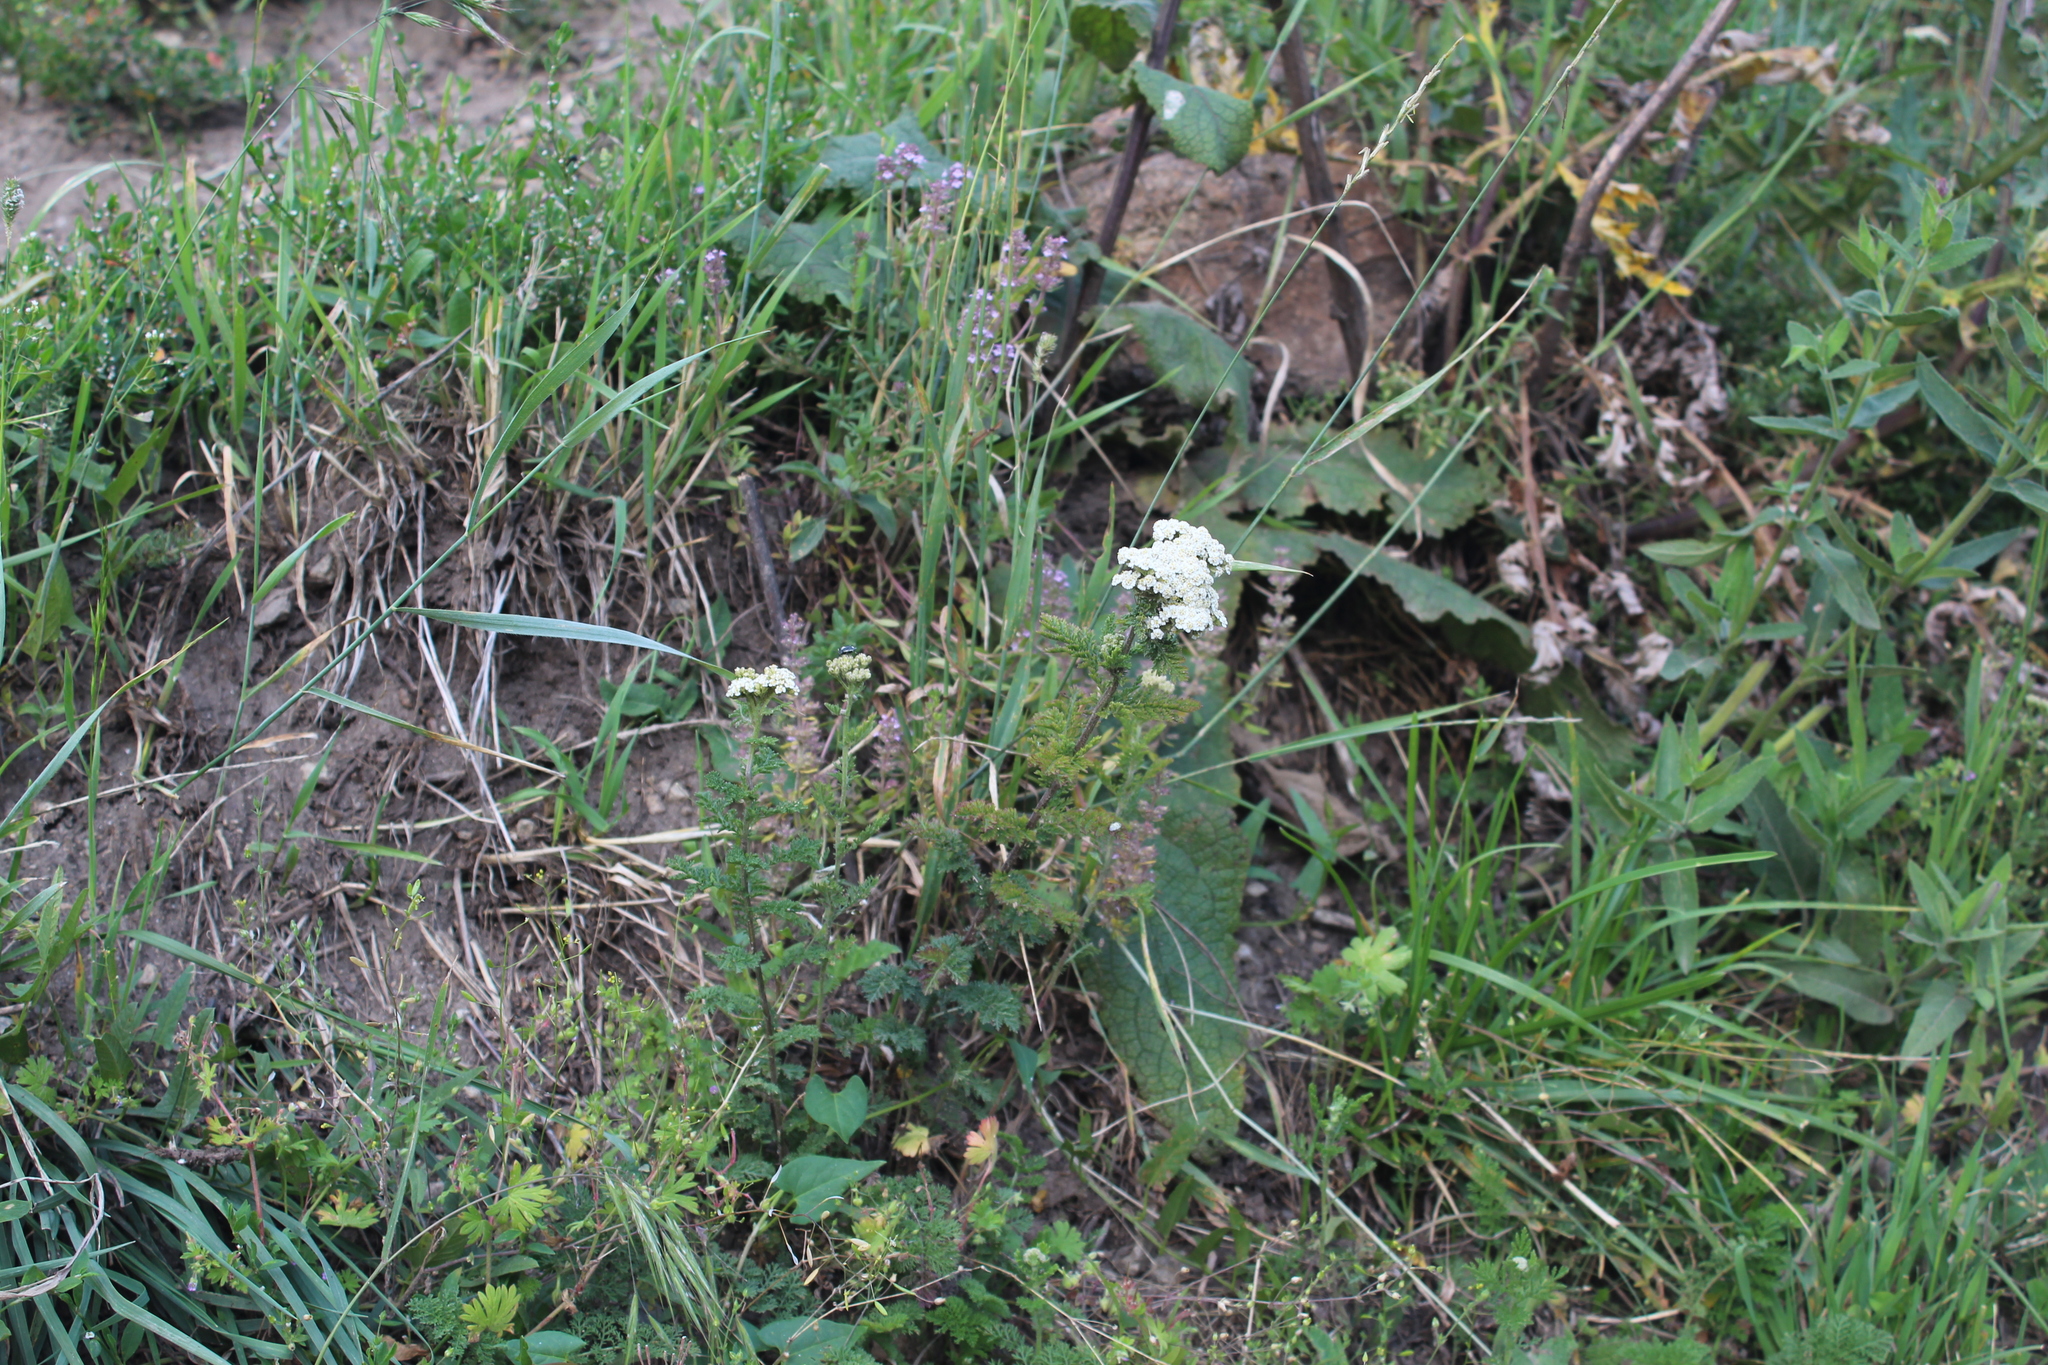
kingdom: Plantae
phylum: Tracheophyta
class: Magnoliopsida
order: Asterales
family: Asteraceae
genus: Achillea
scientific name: Achillea nobilis
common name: Noble yarrow
